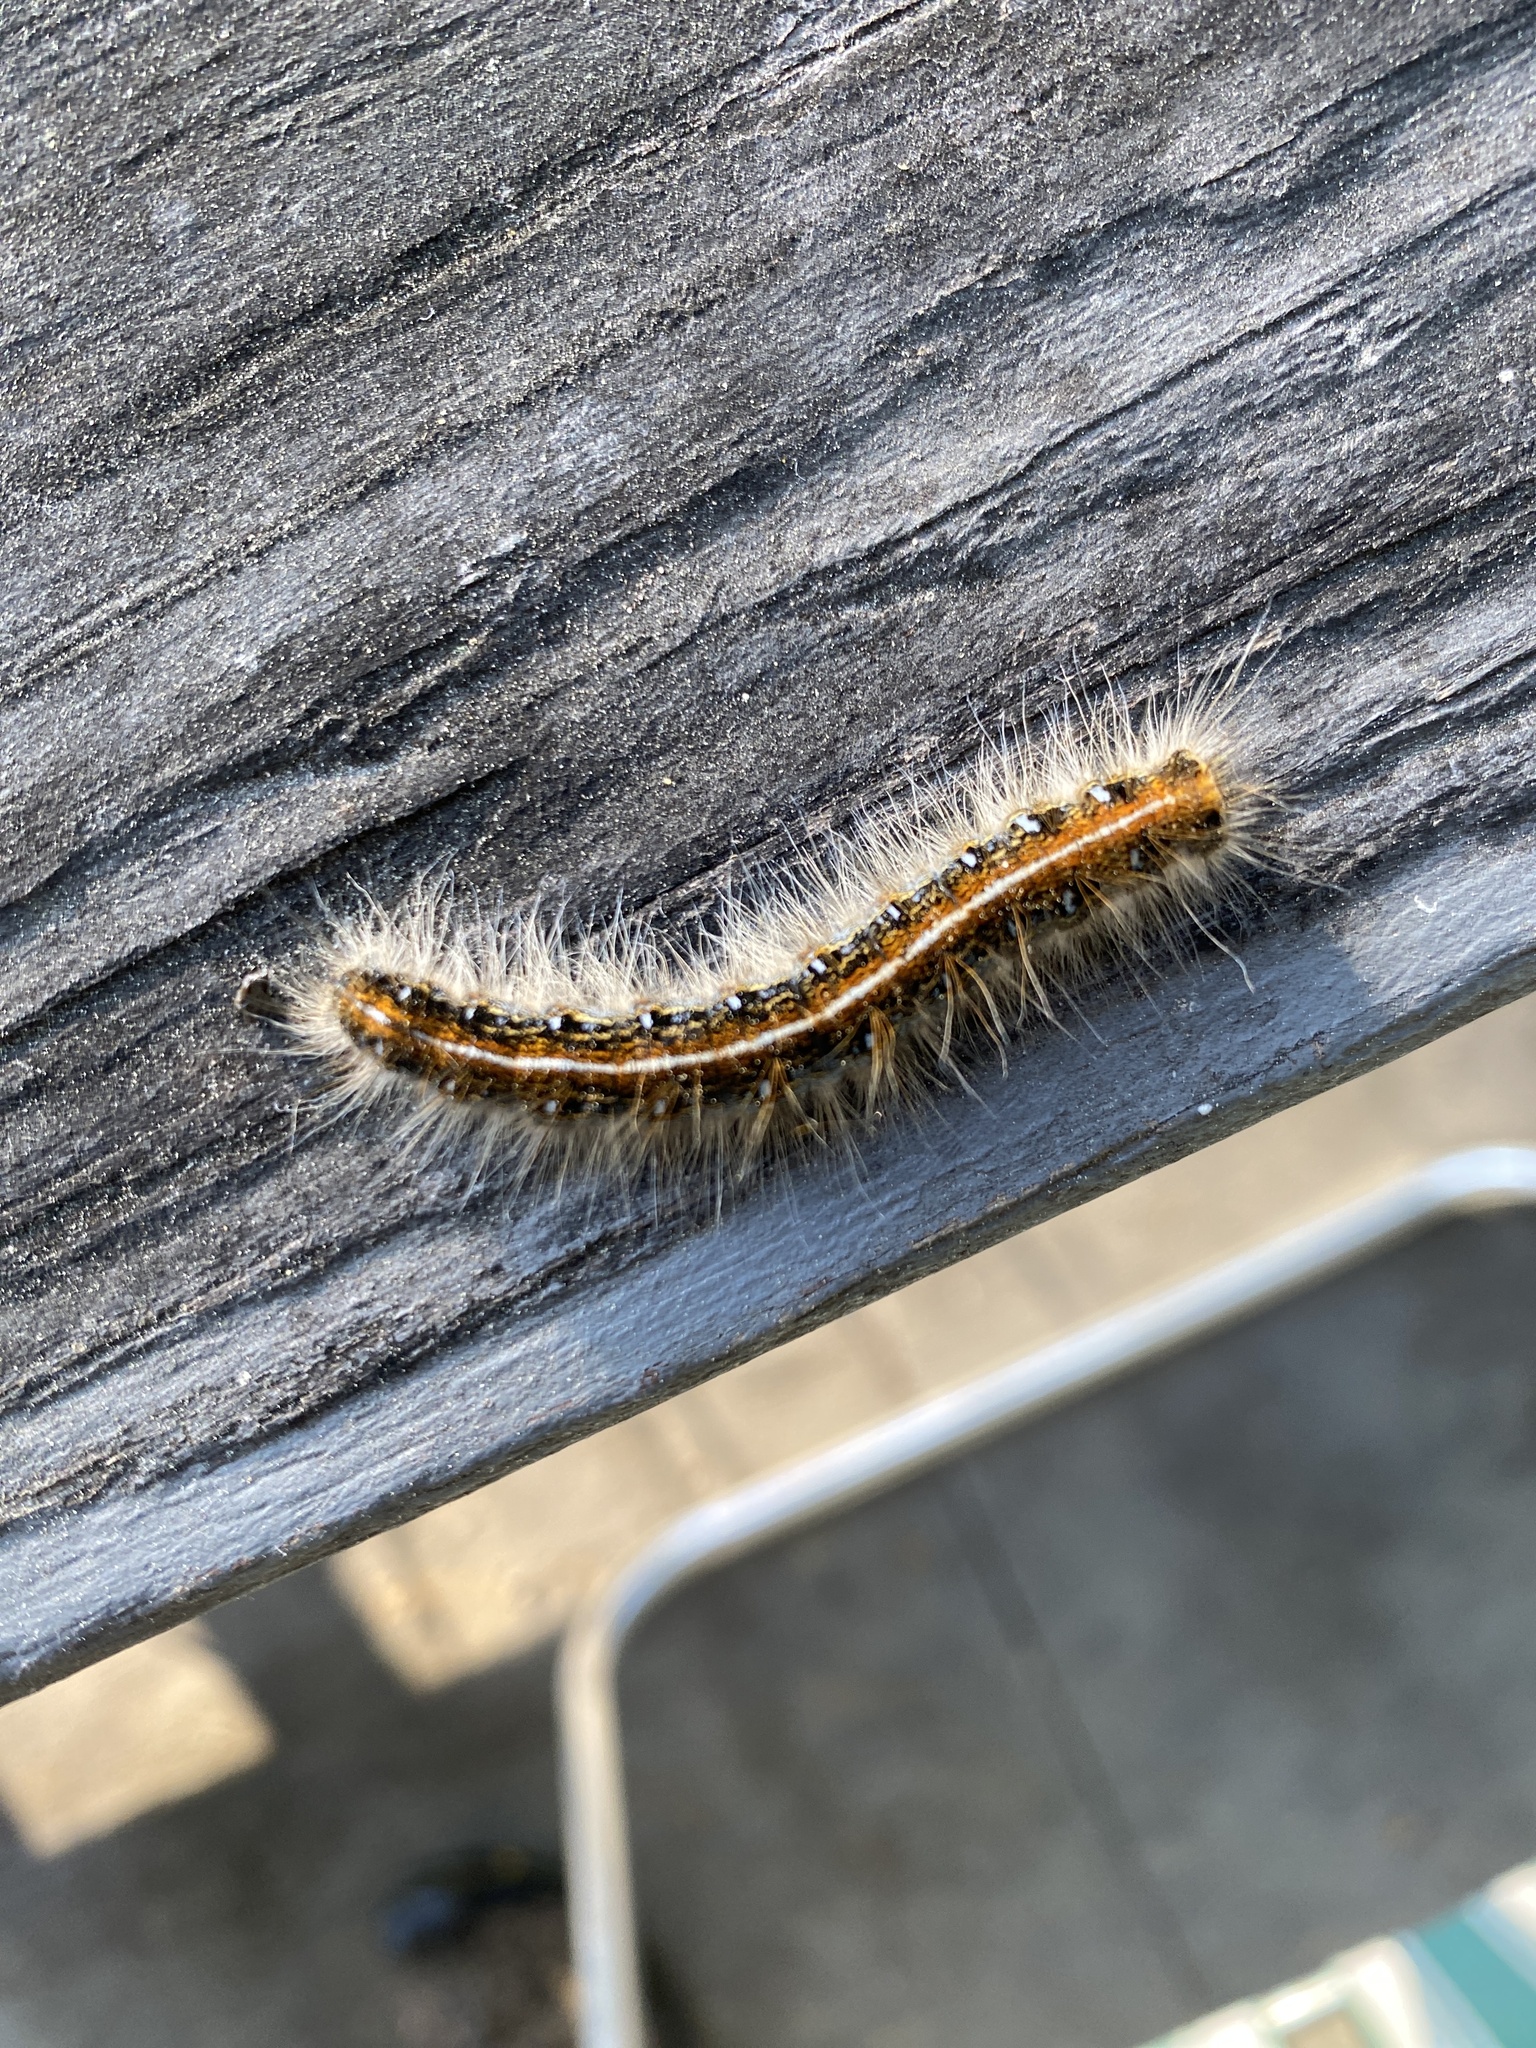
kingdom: Animalia
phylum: Arthropoda
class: Insecta
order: Lepidoptera
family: Lasiocampidae
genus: Malacosoma
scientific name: Malacosoma americana
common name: Eastern tent caterpillar moth
